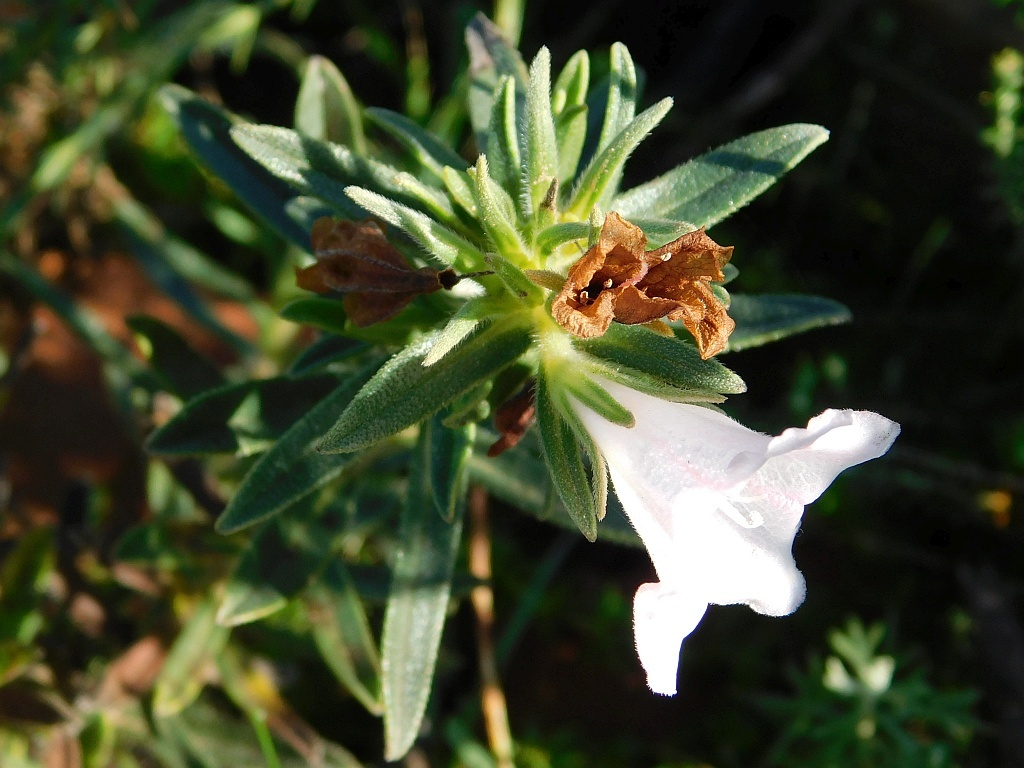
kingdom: Plantae
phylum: Tracheophyta
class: Magnoliopsida
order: Boraginales
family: Boraginaceae
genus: Lobostemon
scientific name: Lobostemon fruticosus
